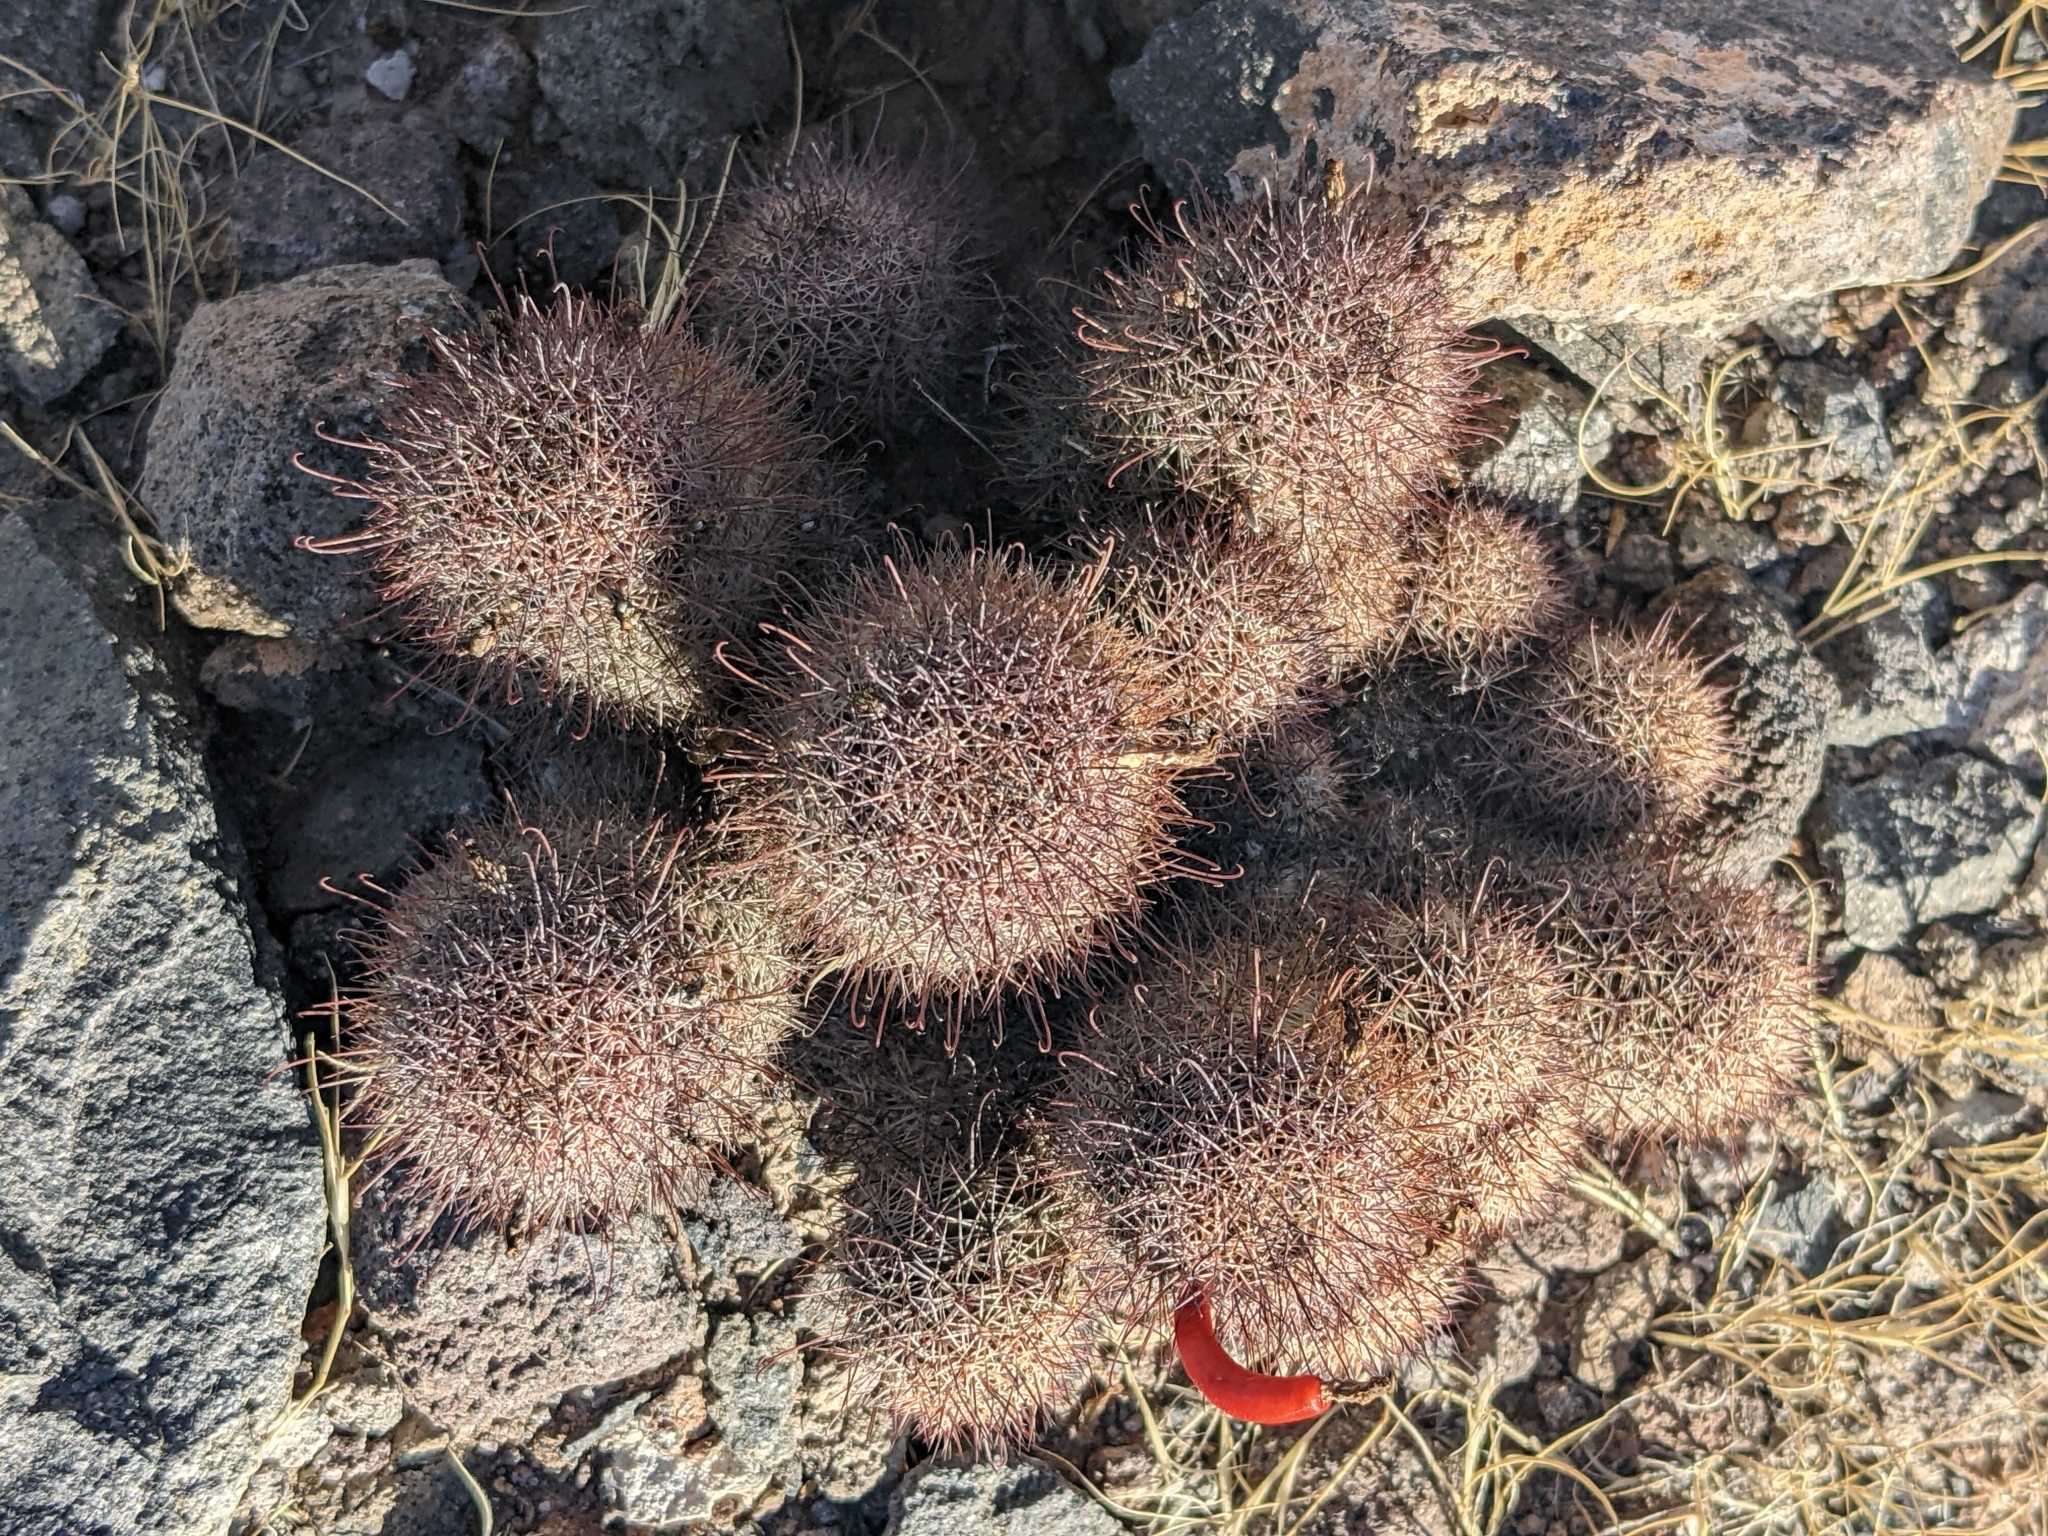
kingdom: Plantae
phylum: Tracheophyta
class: Magnoliopsida
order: Caryophyllales
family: Cactaceae
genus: Cochemiea
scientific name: Cochemiea fraileana
